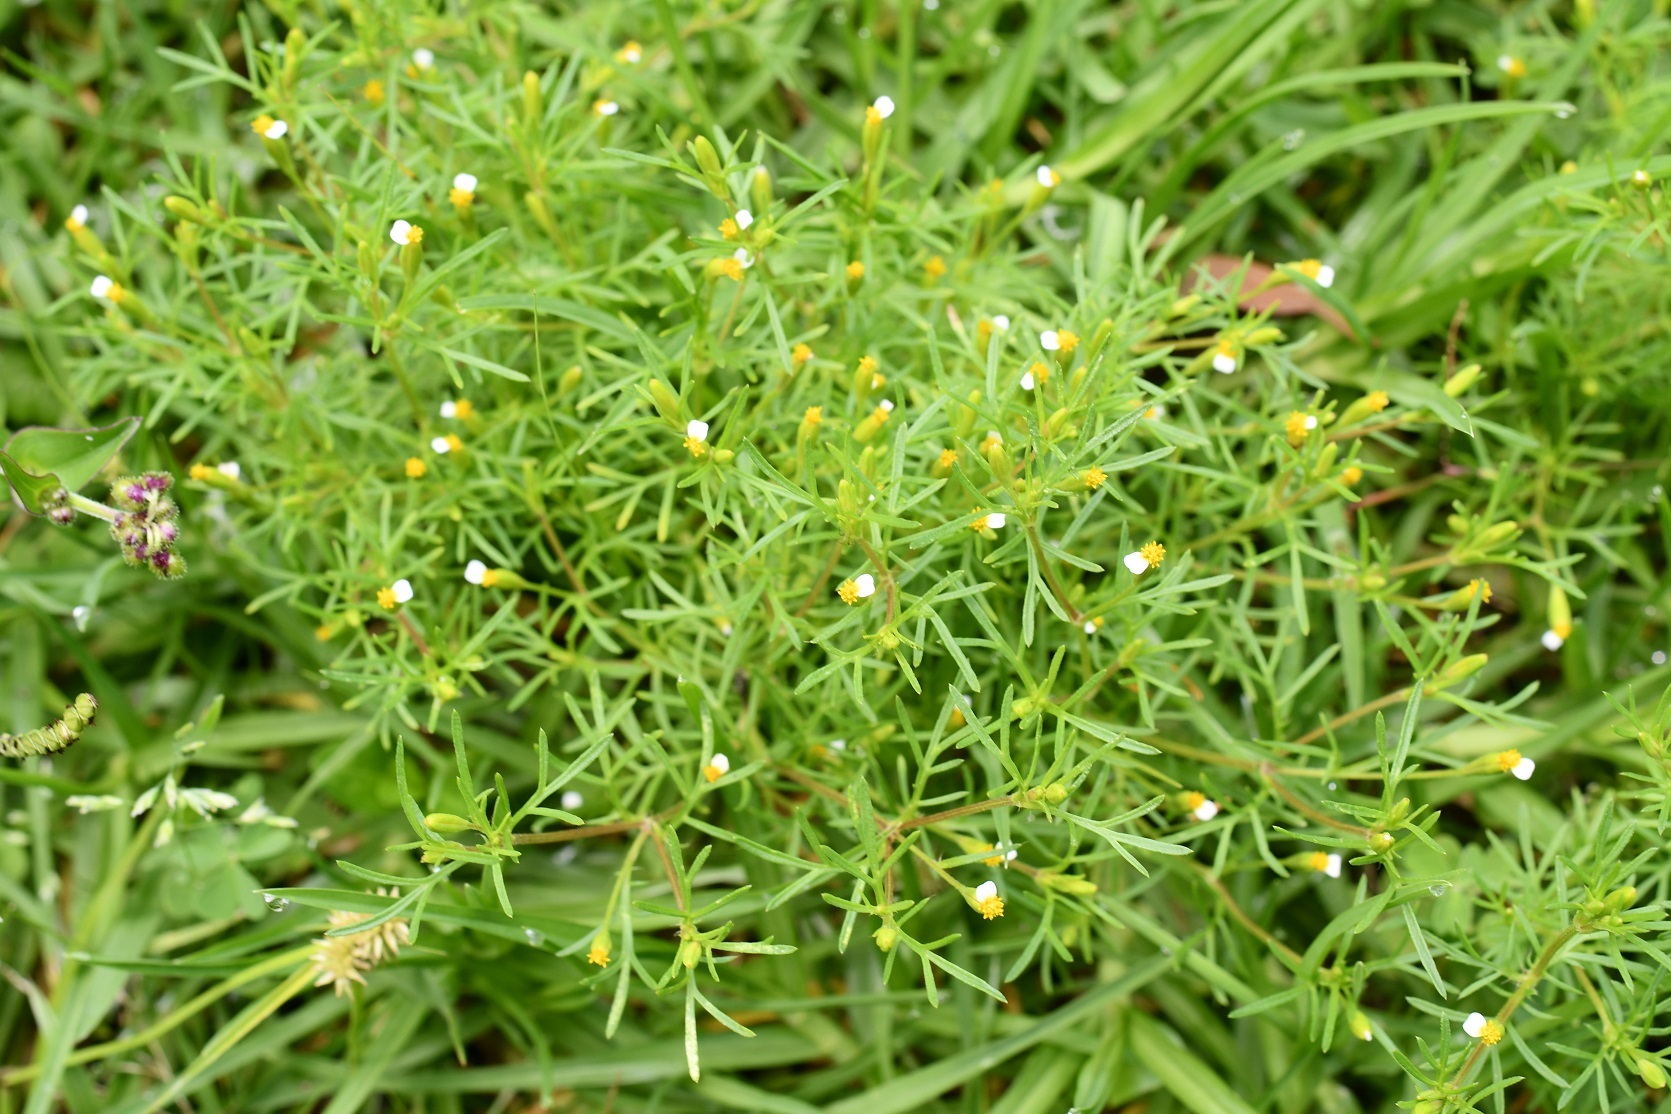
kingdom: Plantae
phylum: Tracheophyta
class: Magnoliopsida
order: Asterales
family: Asteraceae
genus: Tagetes
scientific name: Tagetes filifolia
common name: Lesser marigold
